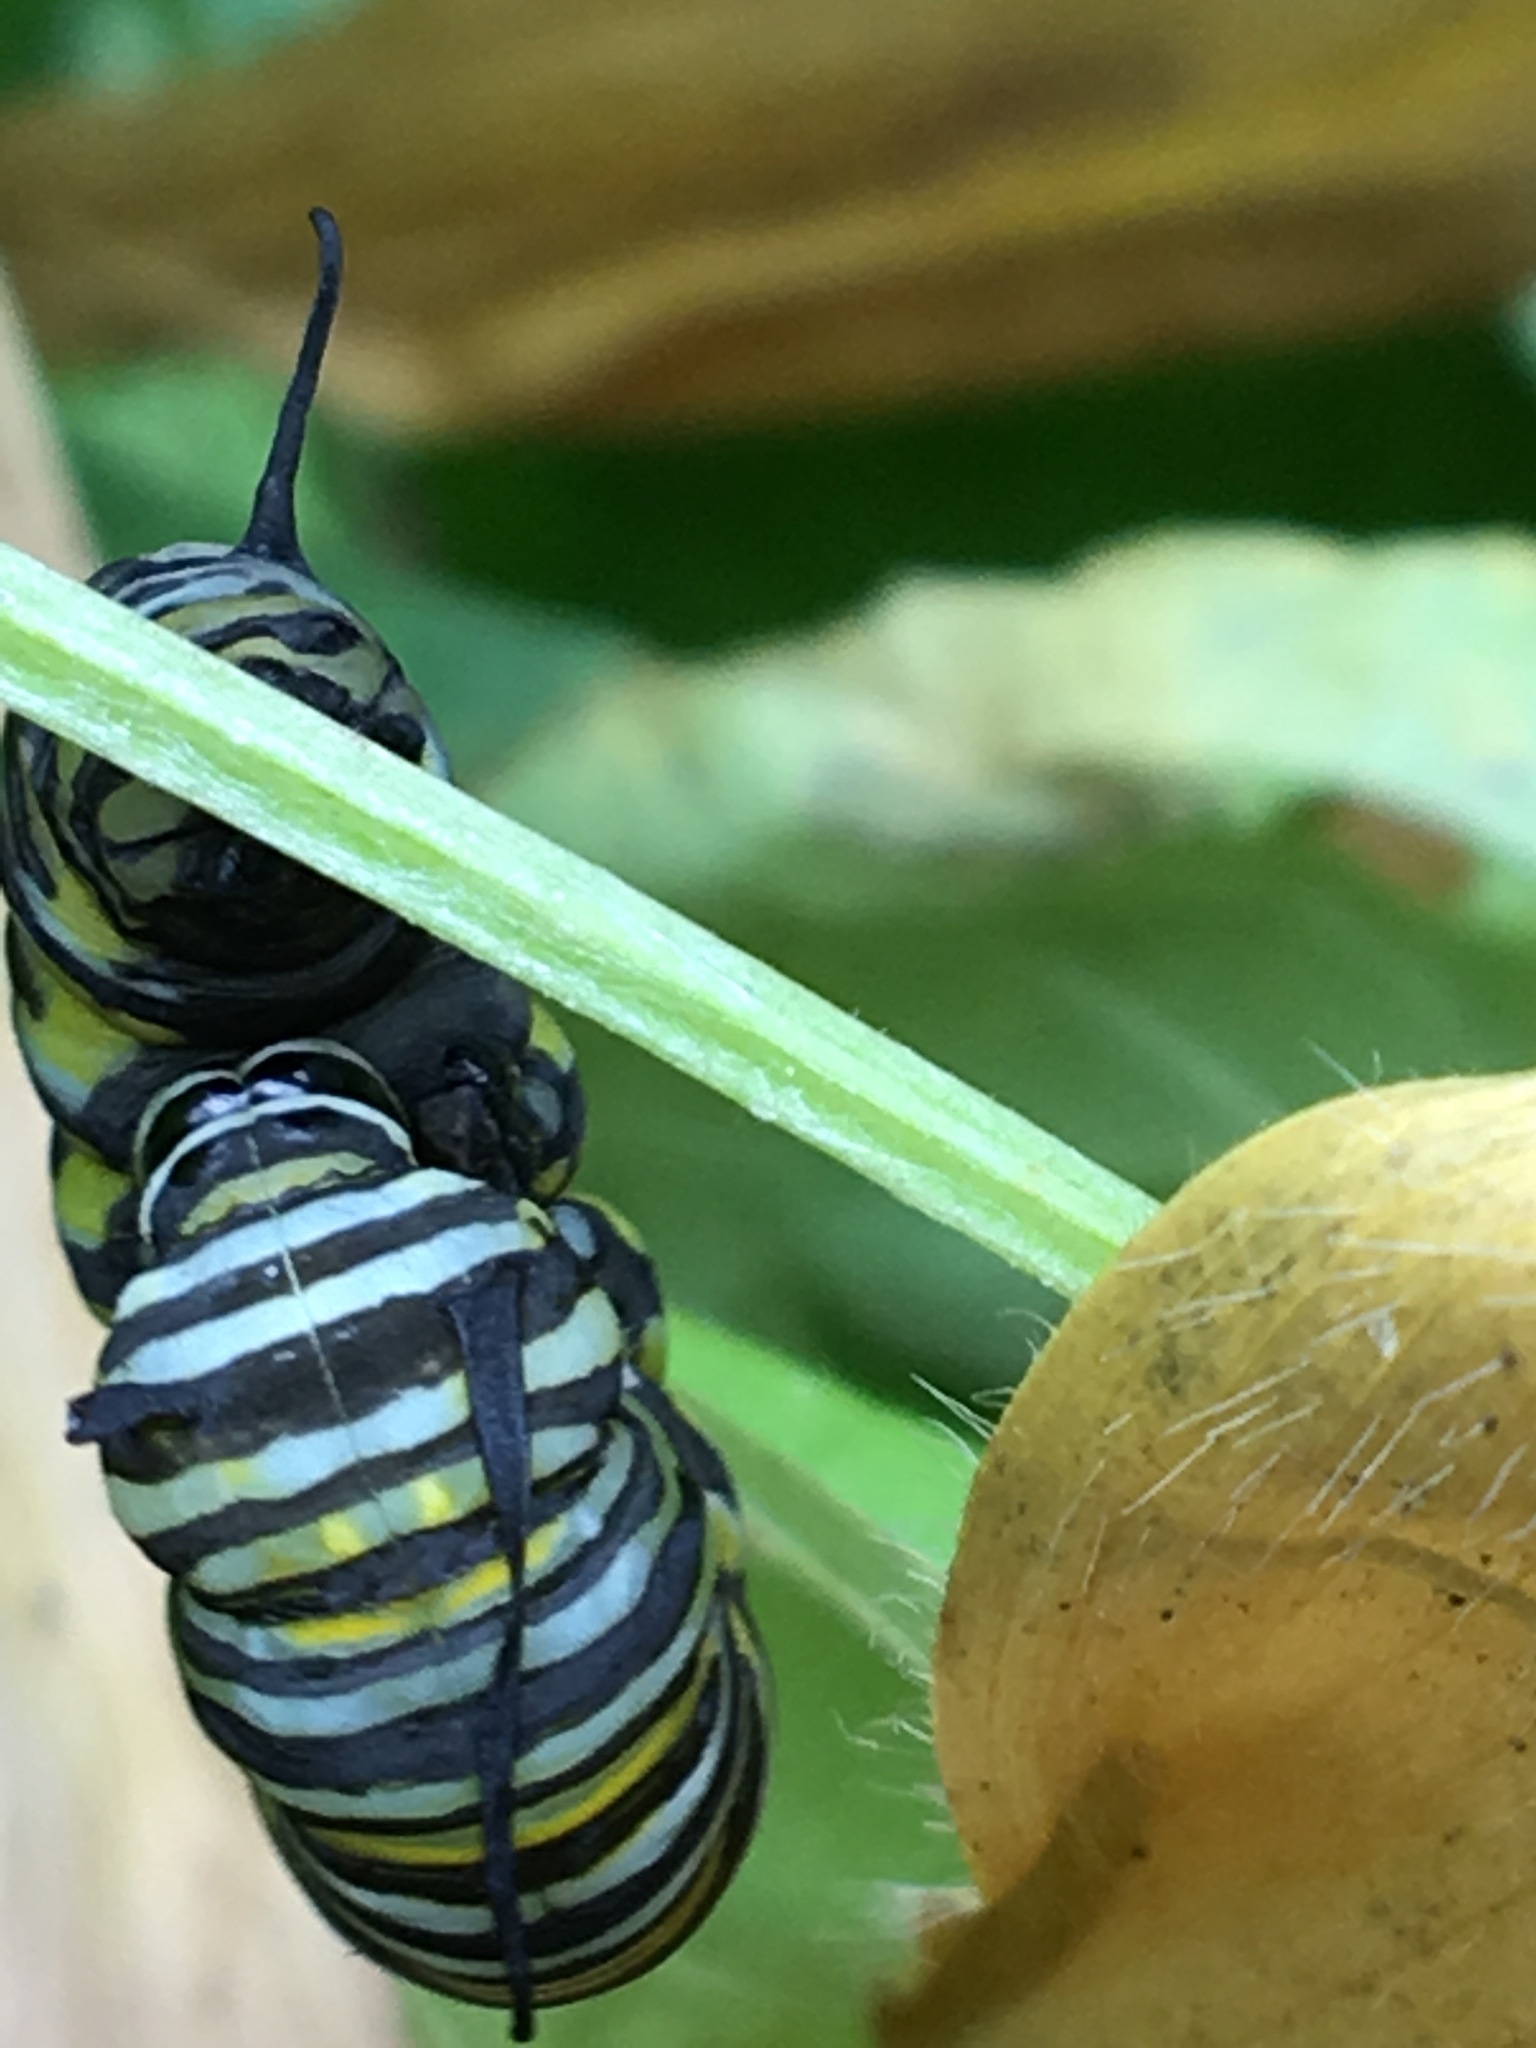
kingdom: Animalia
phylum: Arthropoda
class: Insecta
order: Lepidoptera
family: Nymphalidae
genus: Danaus
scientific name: Danaus plexippus
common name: Monarch
